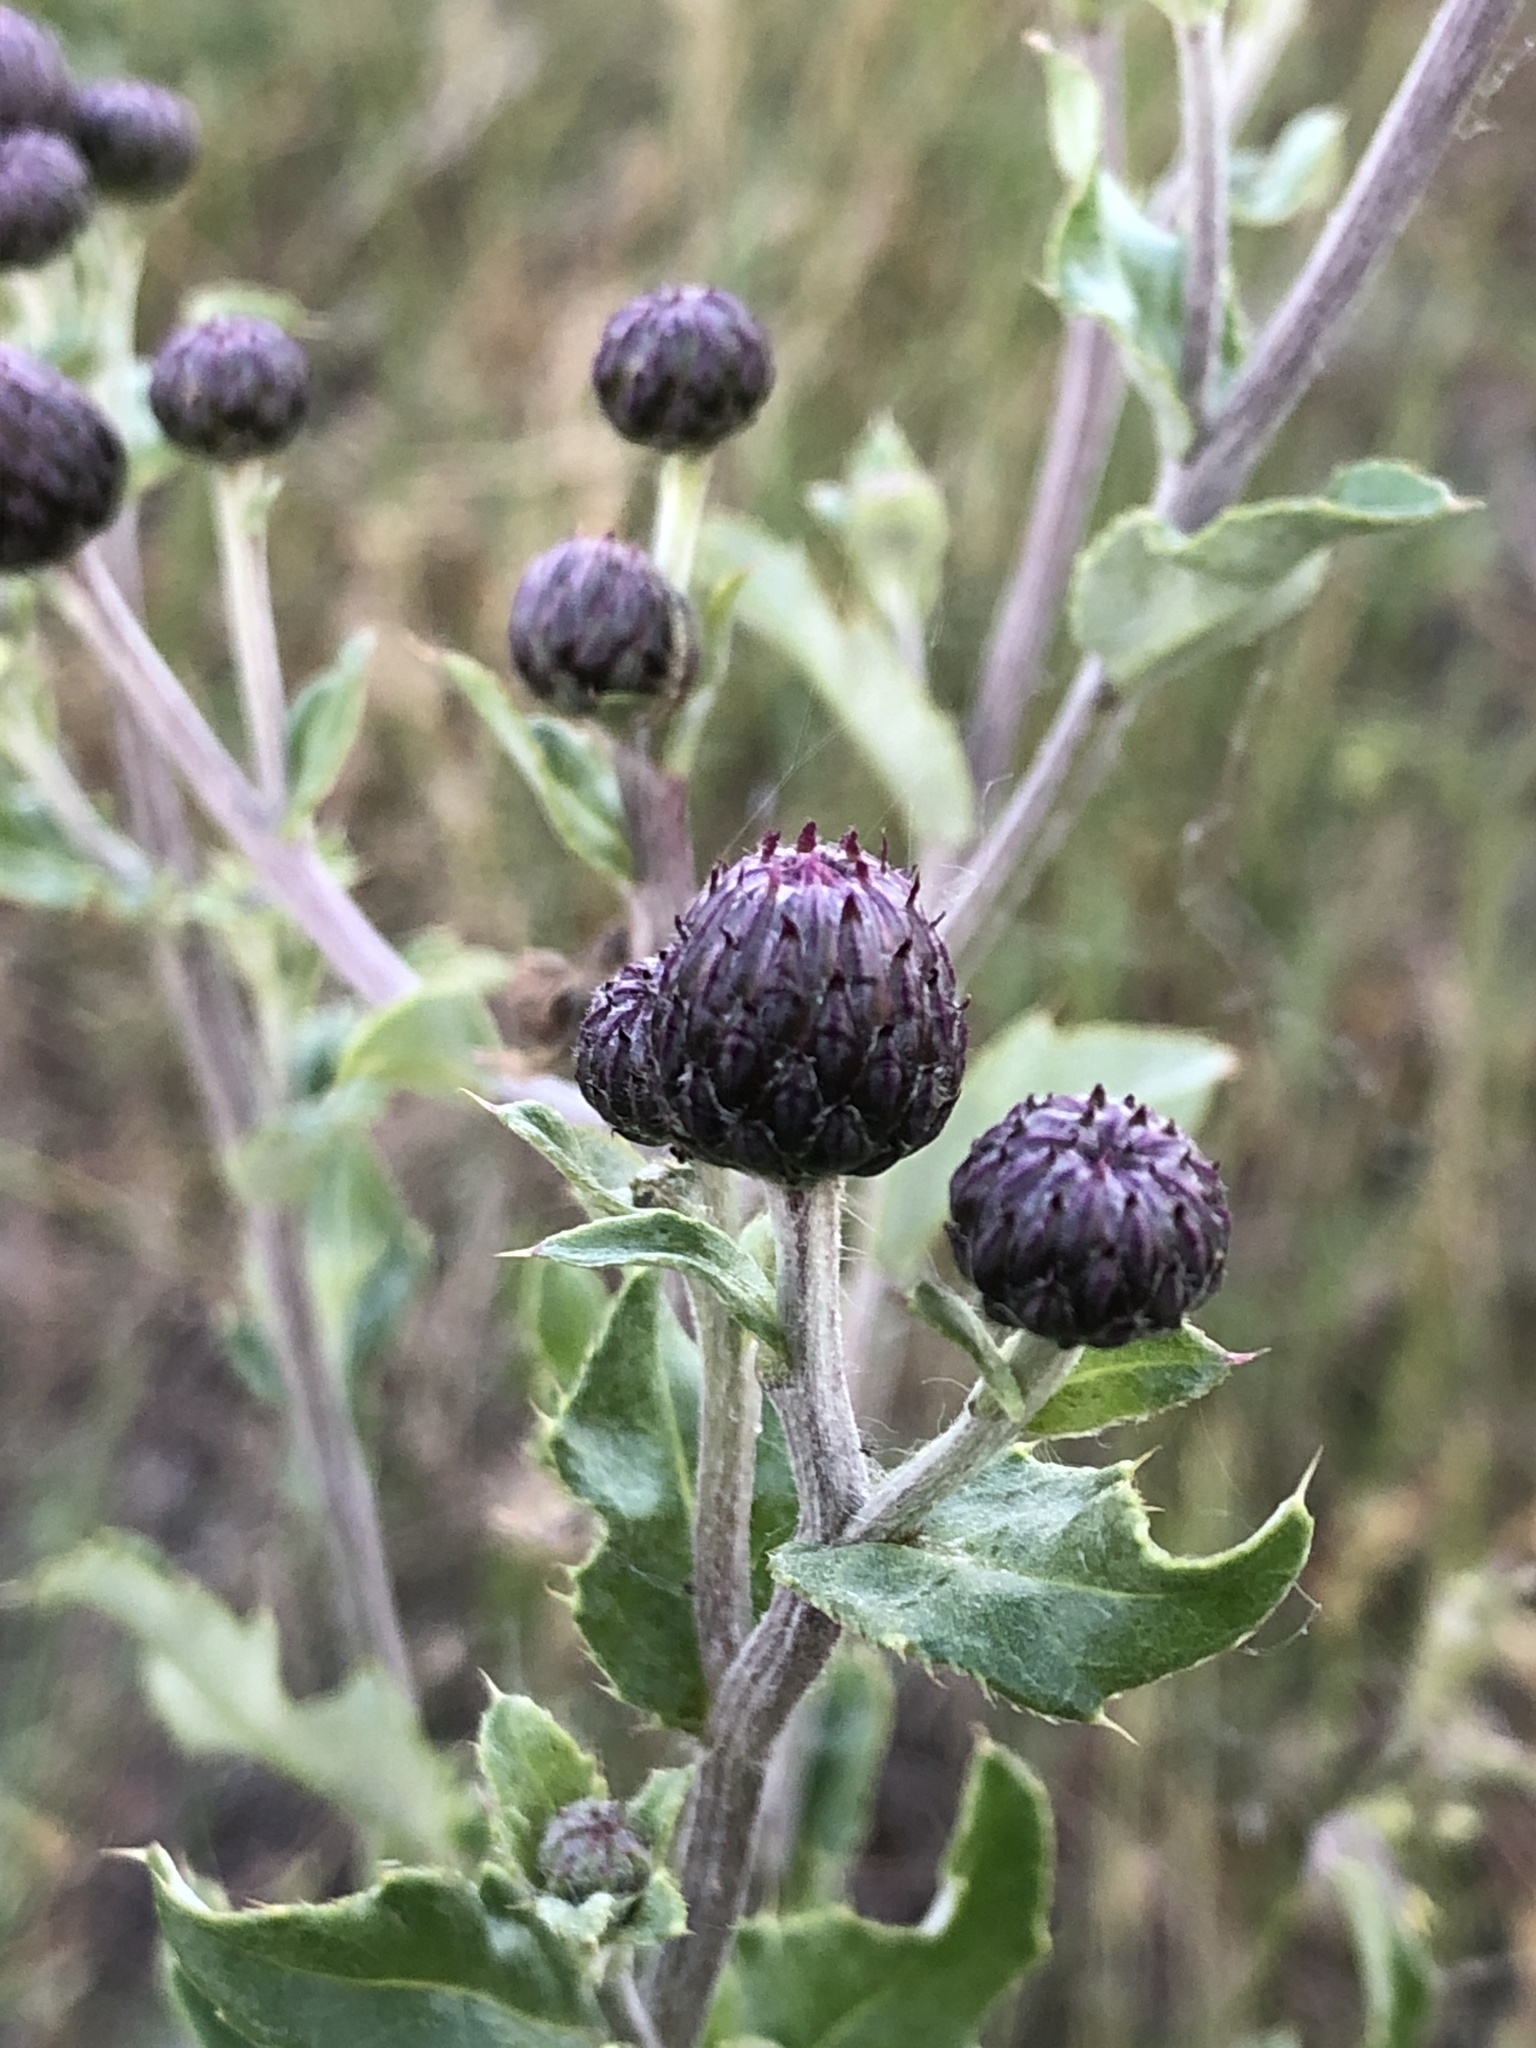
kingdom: Plantae
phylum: Tracheophyta
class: Magnoliopsida
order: Asterales
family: Asteraceae
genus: Cirsium
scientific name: Cirsium arvense
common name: Creeping thistle
